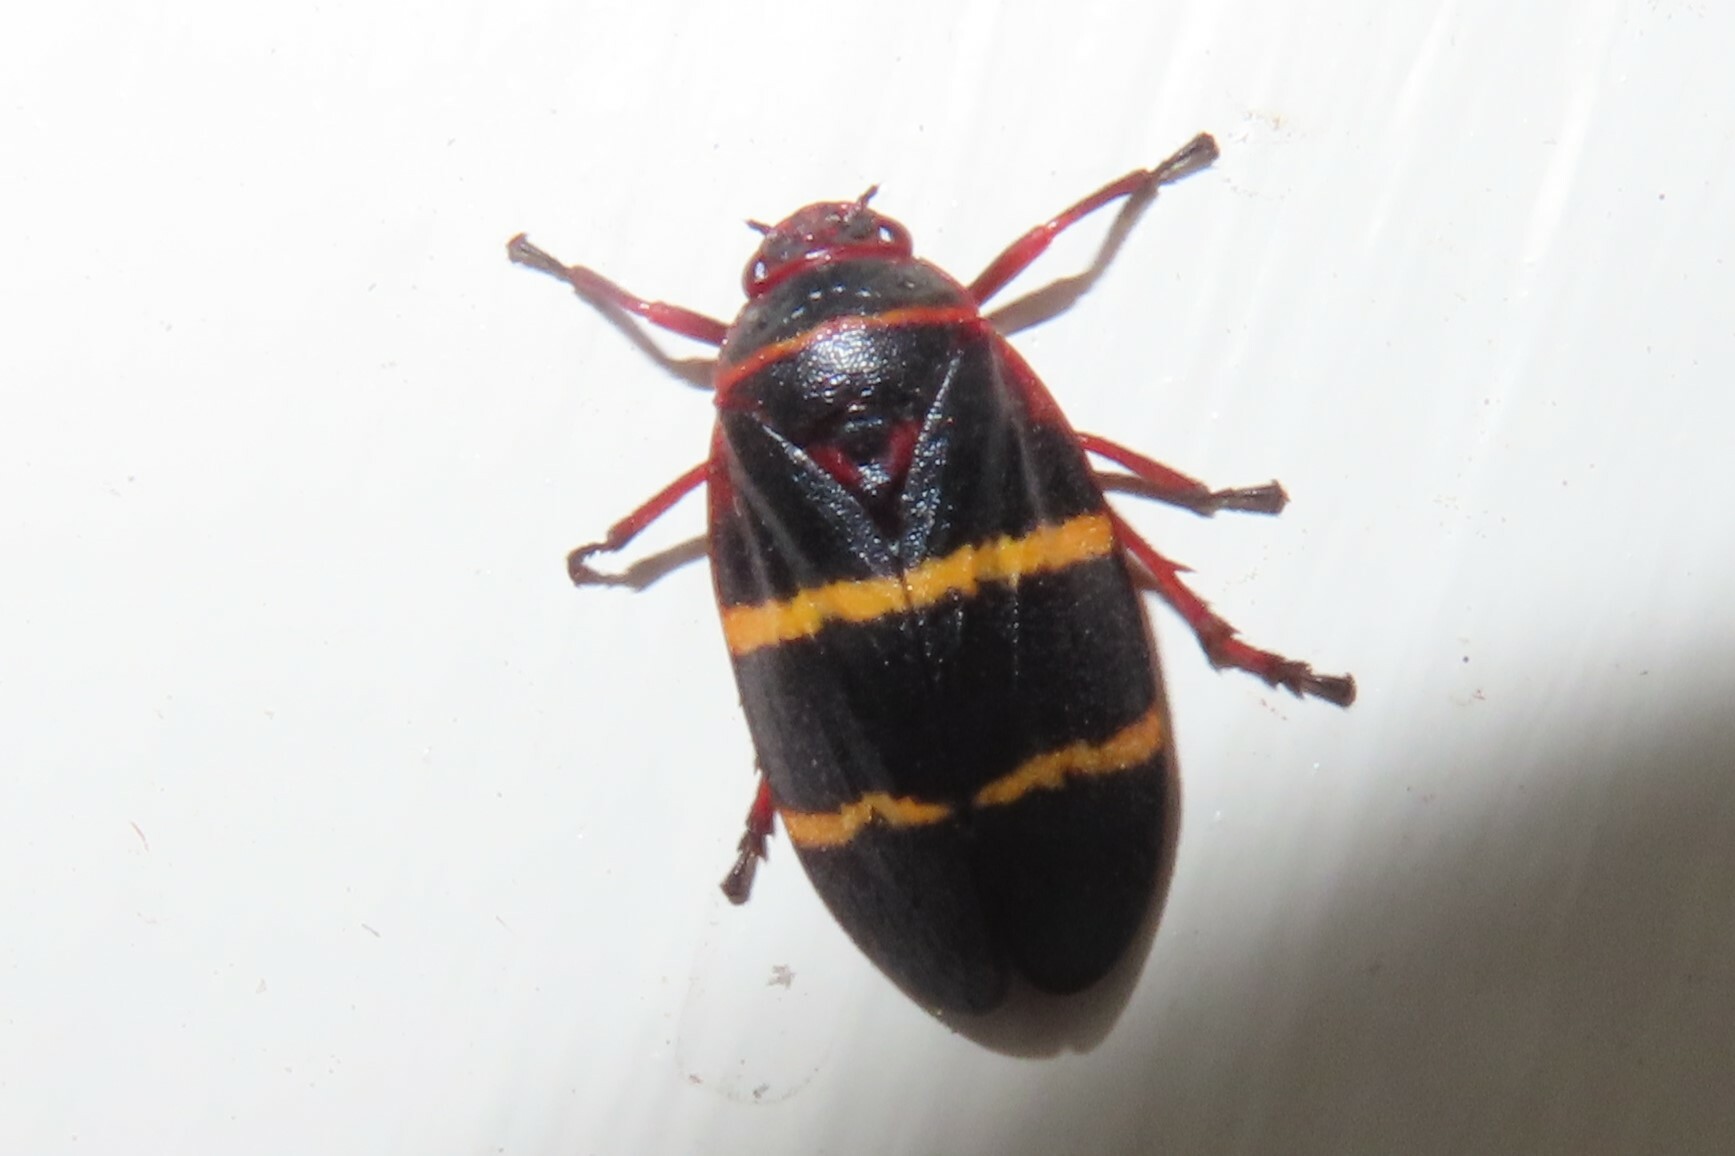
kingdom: Animalia
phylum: Arthropoda
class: Insecta
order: Hemiptera
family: Cercopidae
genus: Prosapia
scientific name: Prosapia bicincta
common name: Twolined spittlebug
